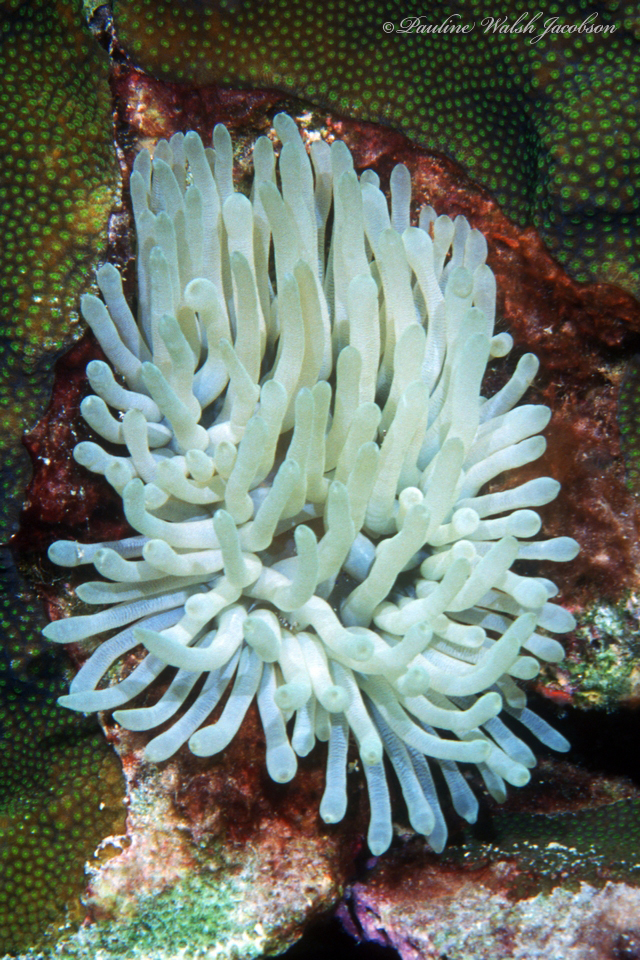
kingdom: Animalia
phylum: Cnidaria
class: Anthozoa
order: Actiniaria
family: Actiniidae
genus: Condylactis
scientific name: Condylactis gigantea
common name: Giant caribbean anemone
